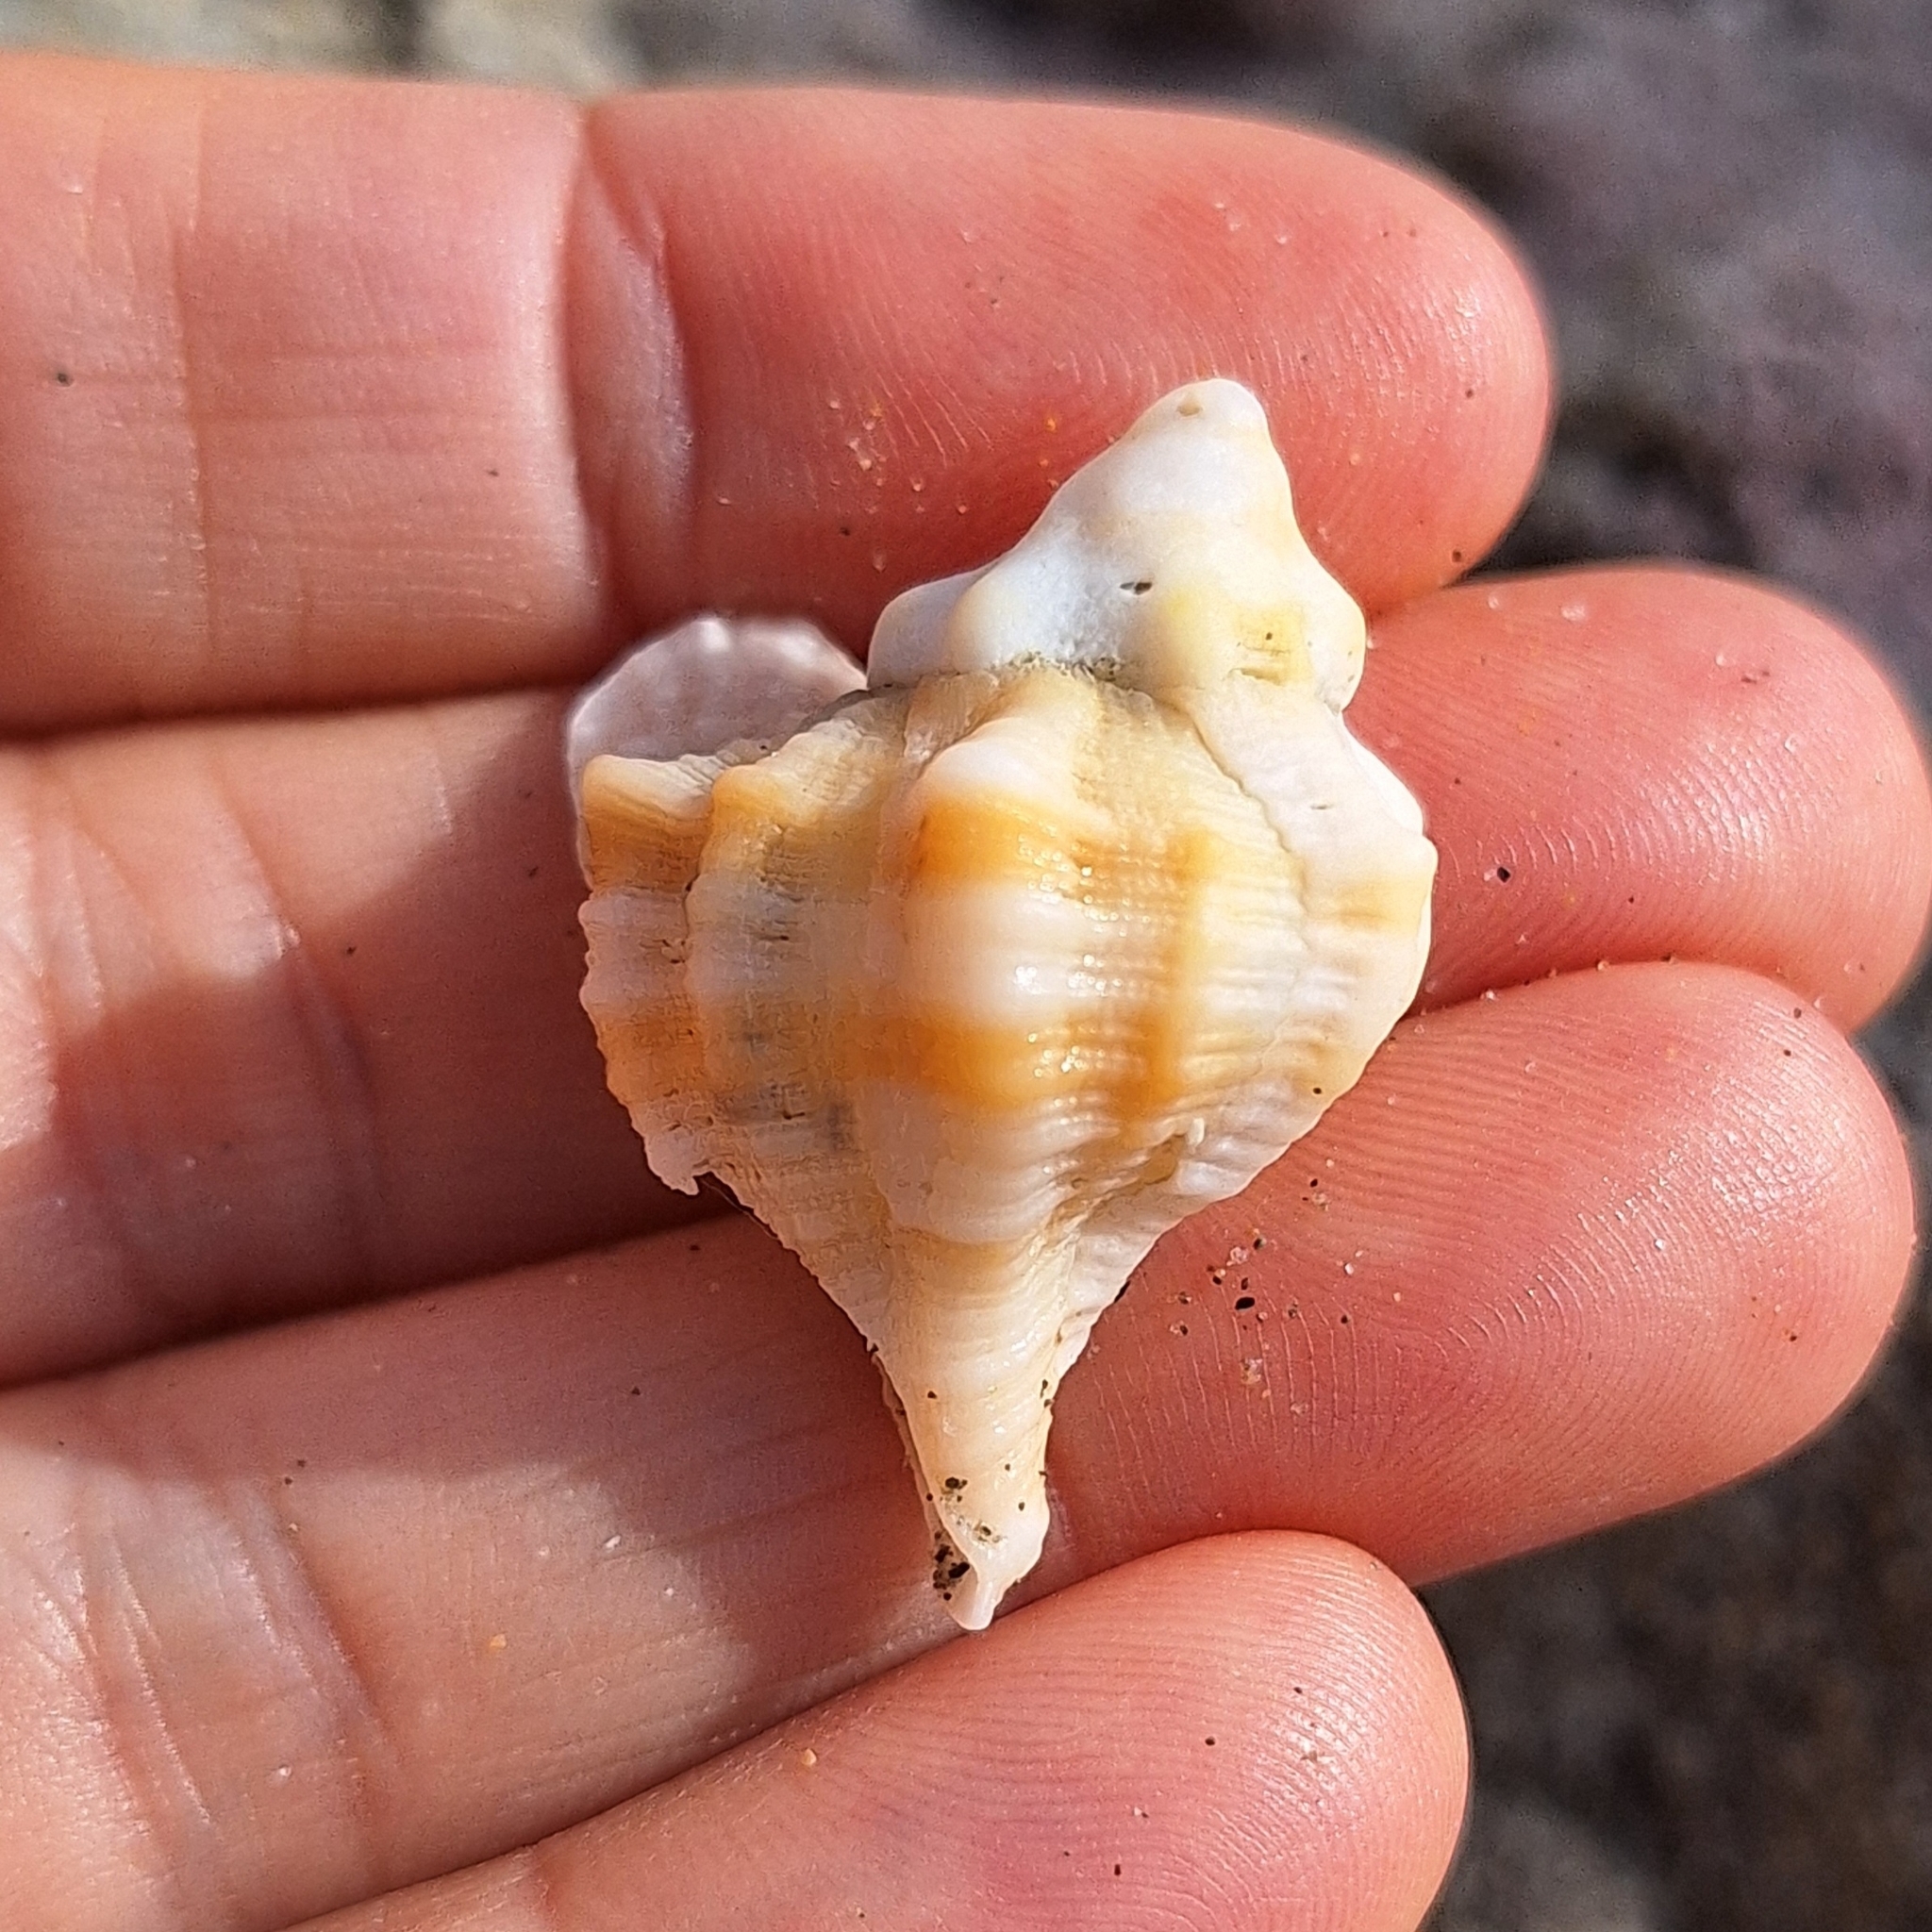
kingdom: Animalia
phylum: Mollusca
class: Gastropoda
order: Neogastropoda
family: Muricidae
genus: Hexaplex
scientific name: Hexaplex trunculus
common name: Banded dye-murex
